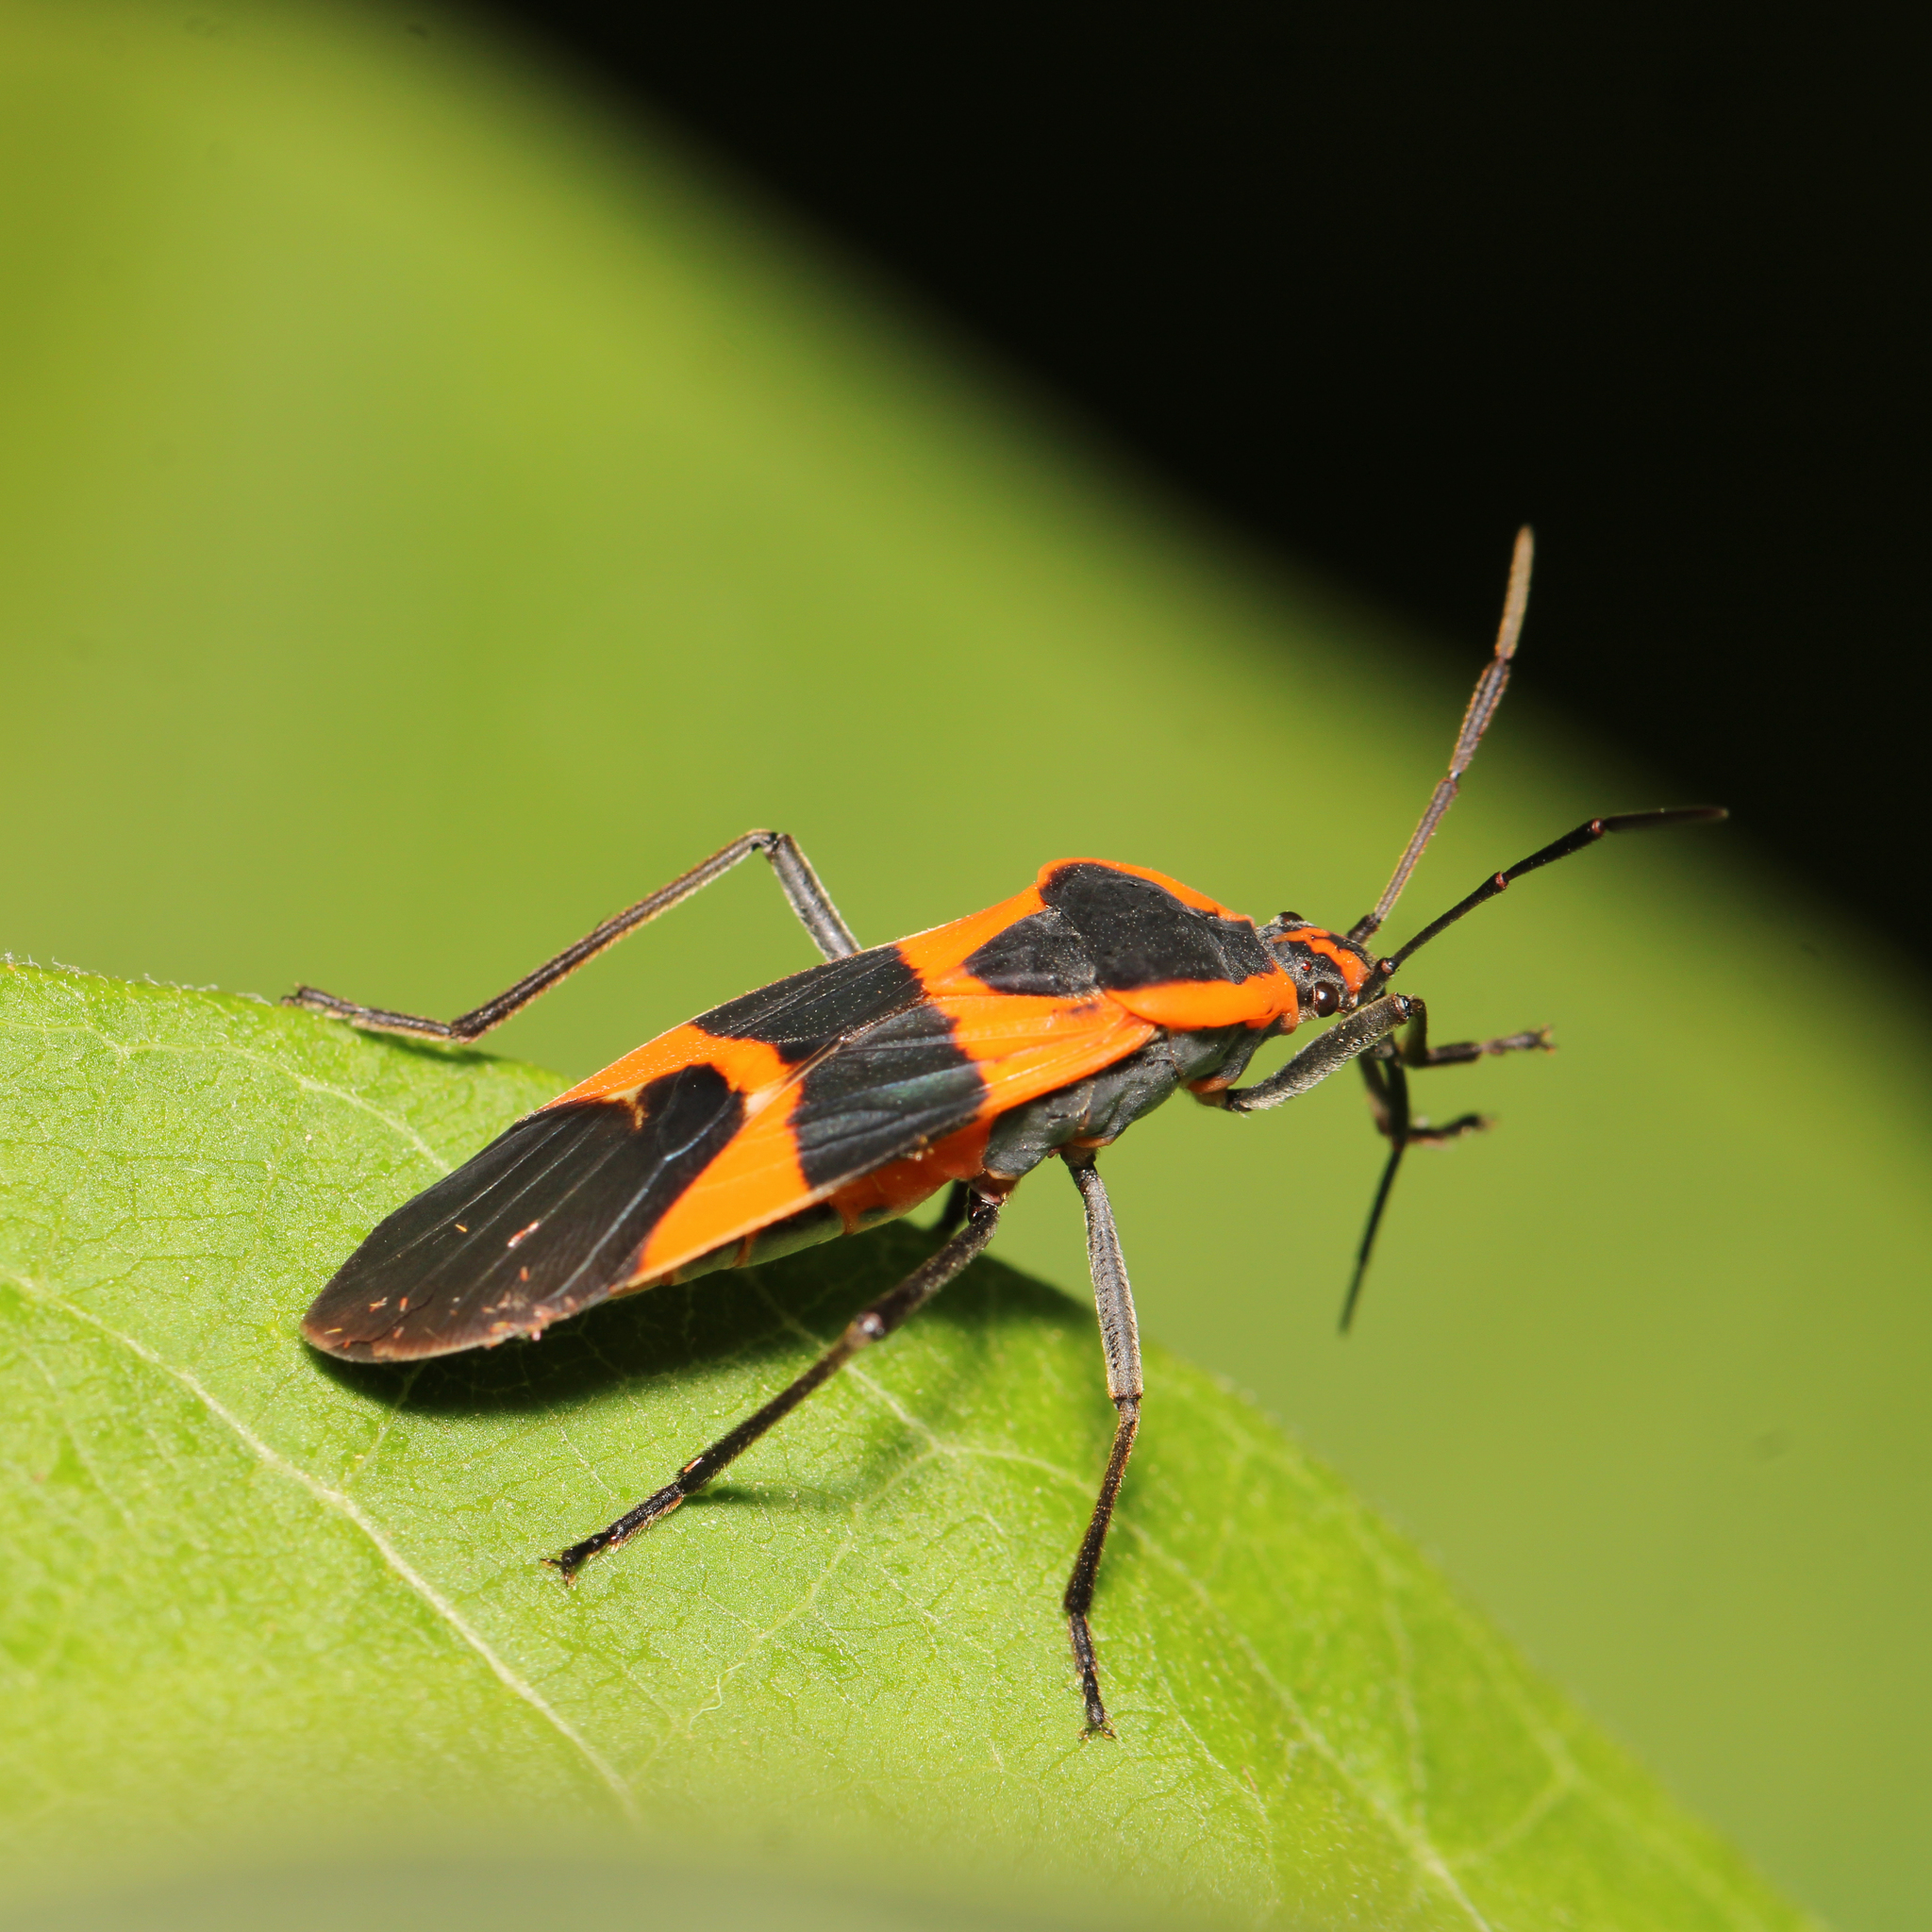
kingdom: Animalia
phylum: Arthropoda
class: Insecta
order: Hemiptera
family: Lygaeidae
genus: Oncopeltus
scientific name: Oncopeltus fasciatus
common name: Large milkweed bug
